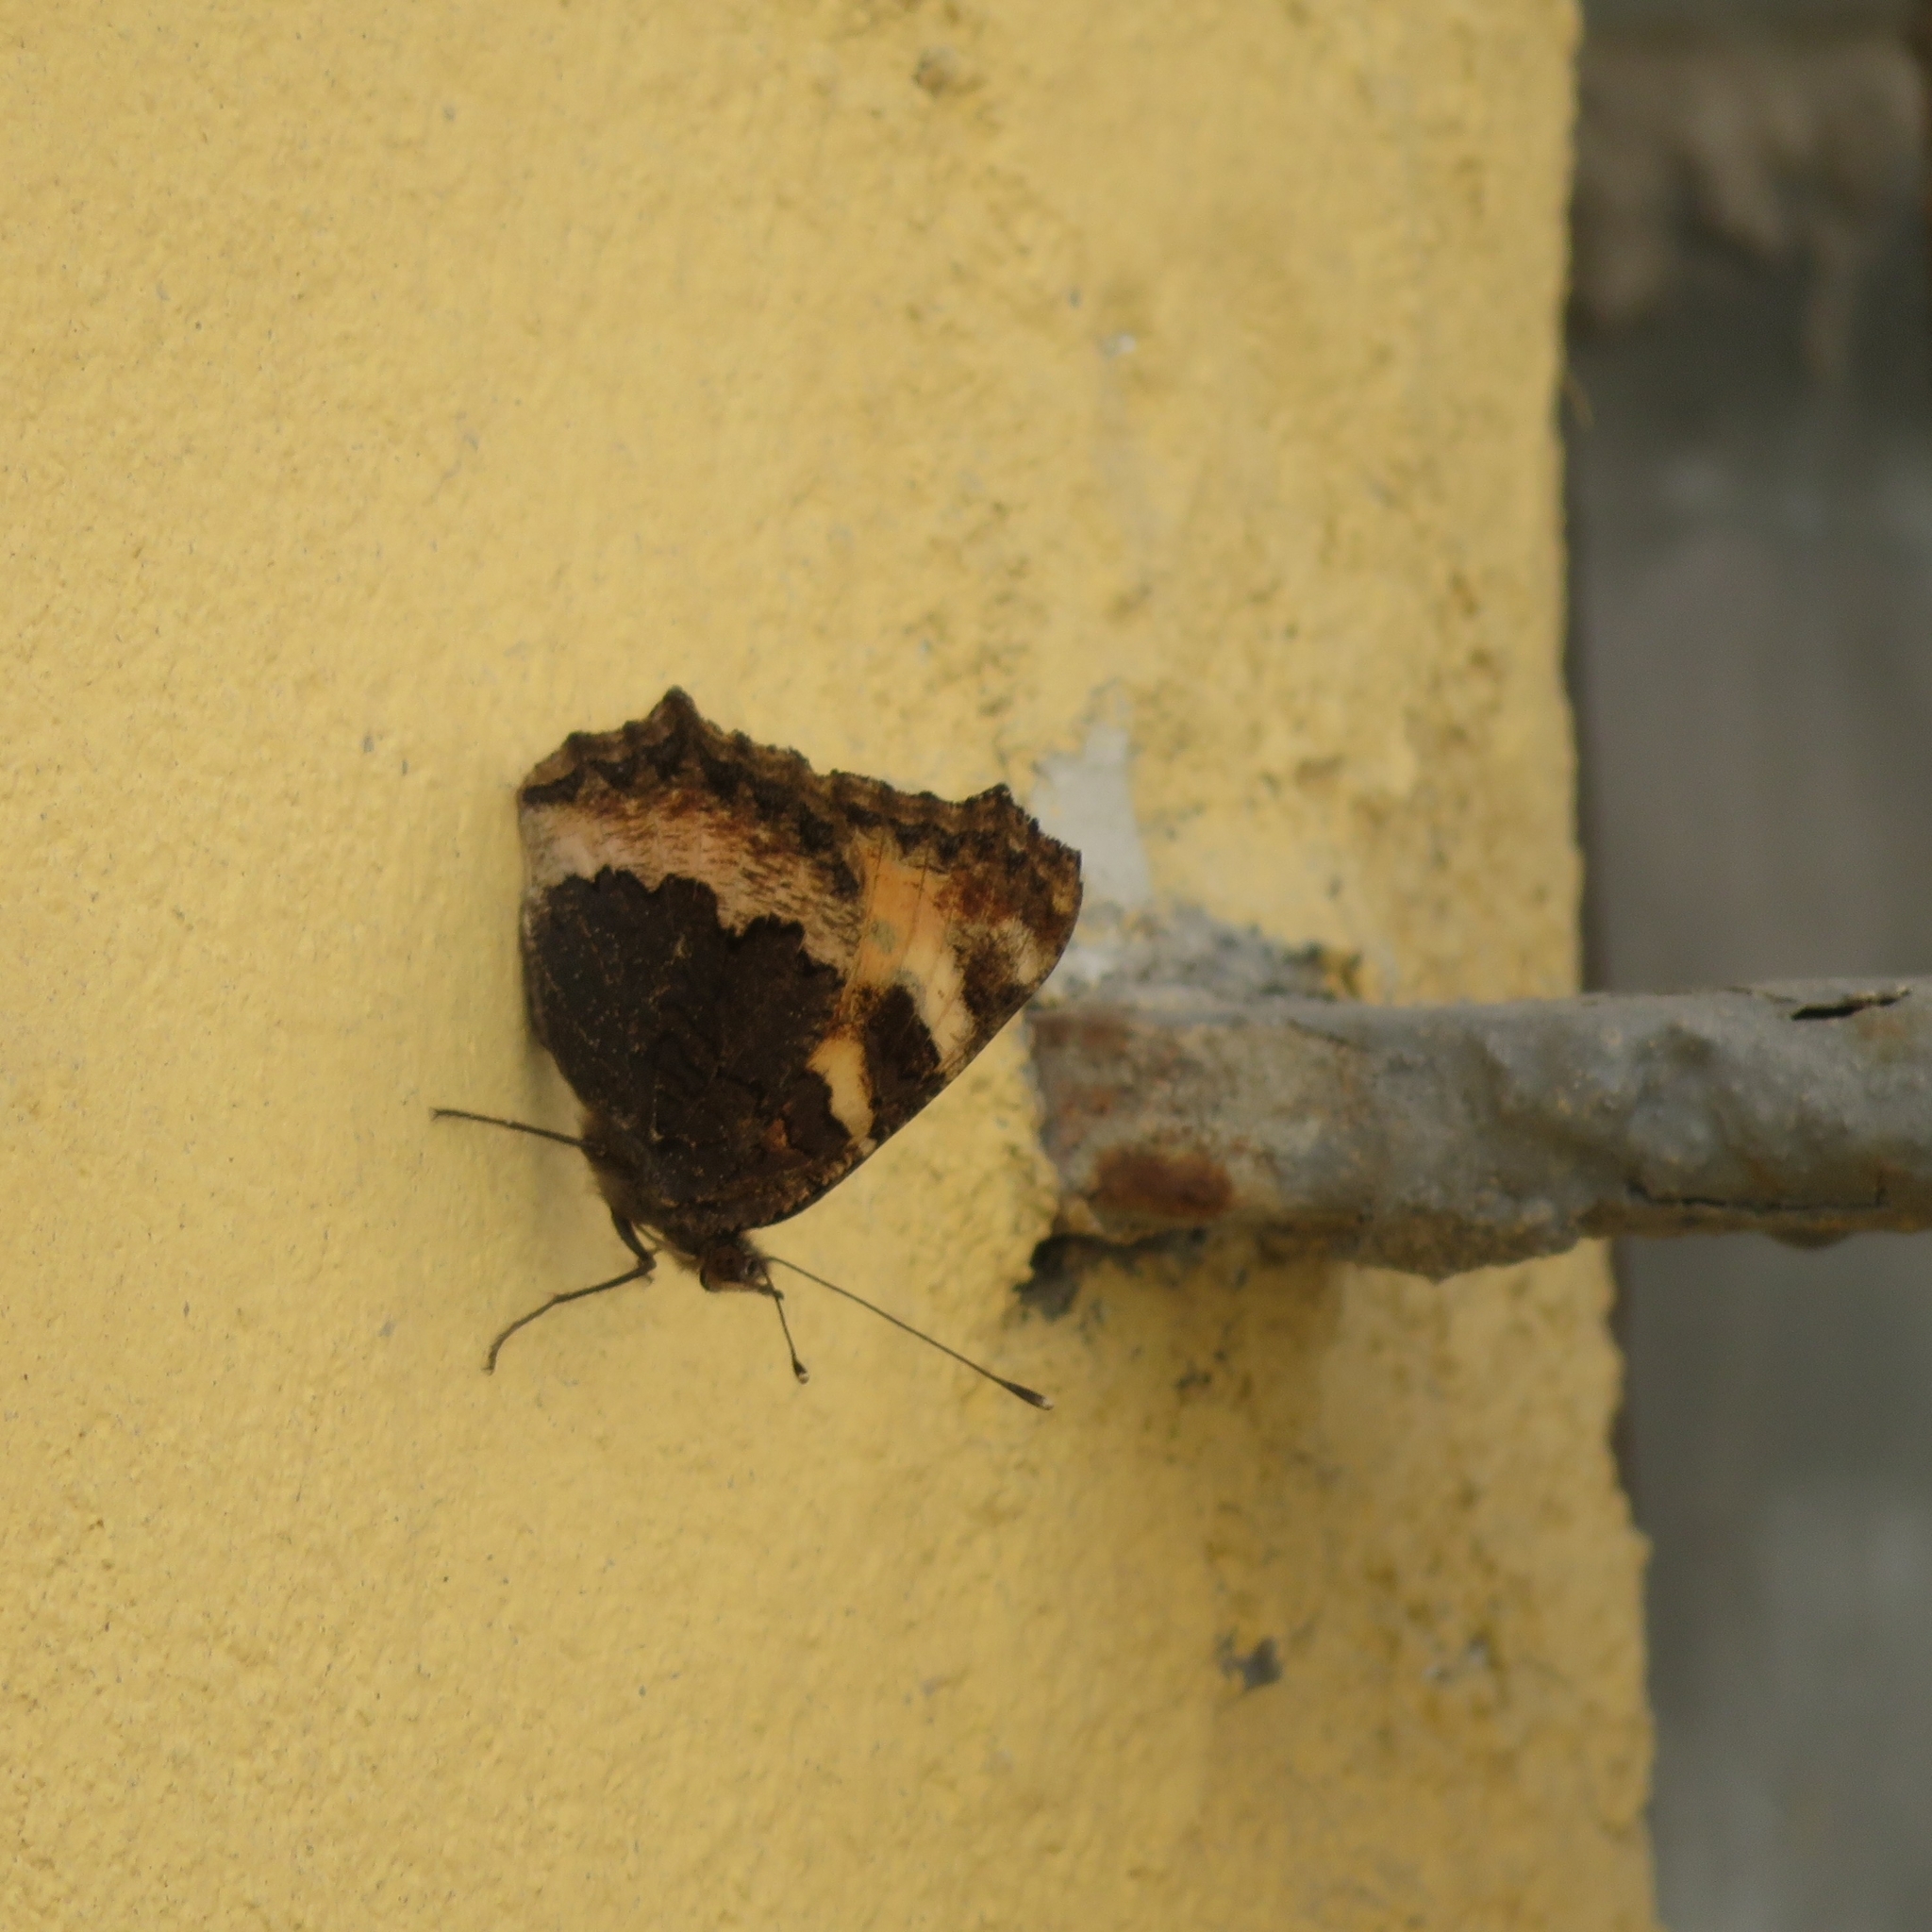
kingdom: Animalia
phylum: Arthropoda
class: Insecta
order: Lepidoptera
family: Nymphalidae
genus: Aglais
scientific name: Aglais urticae
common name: Small tortoiseshell
